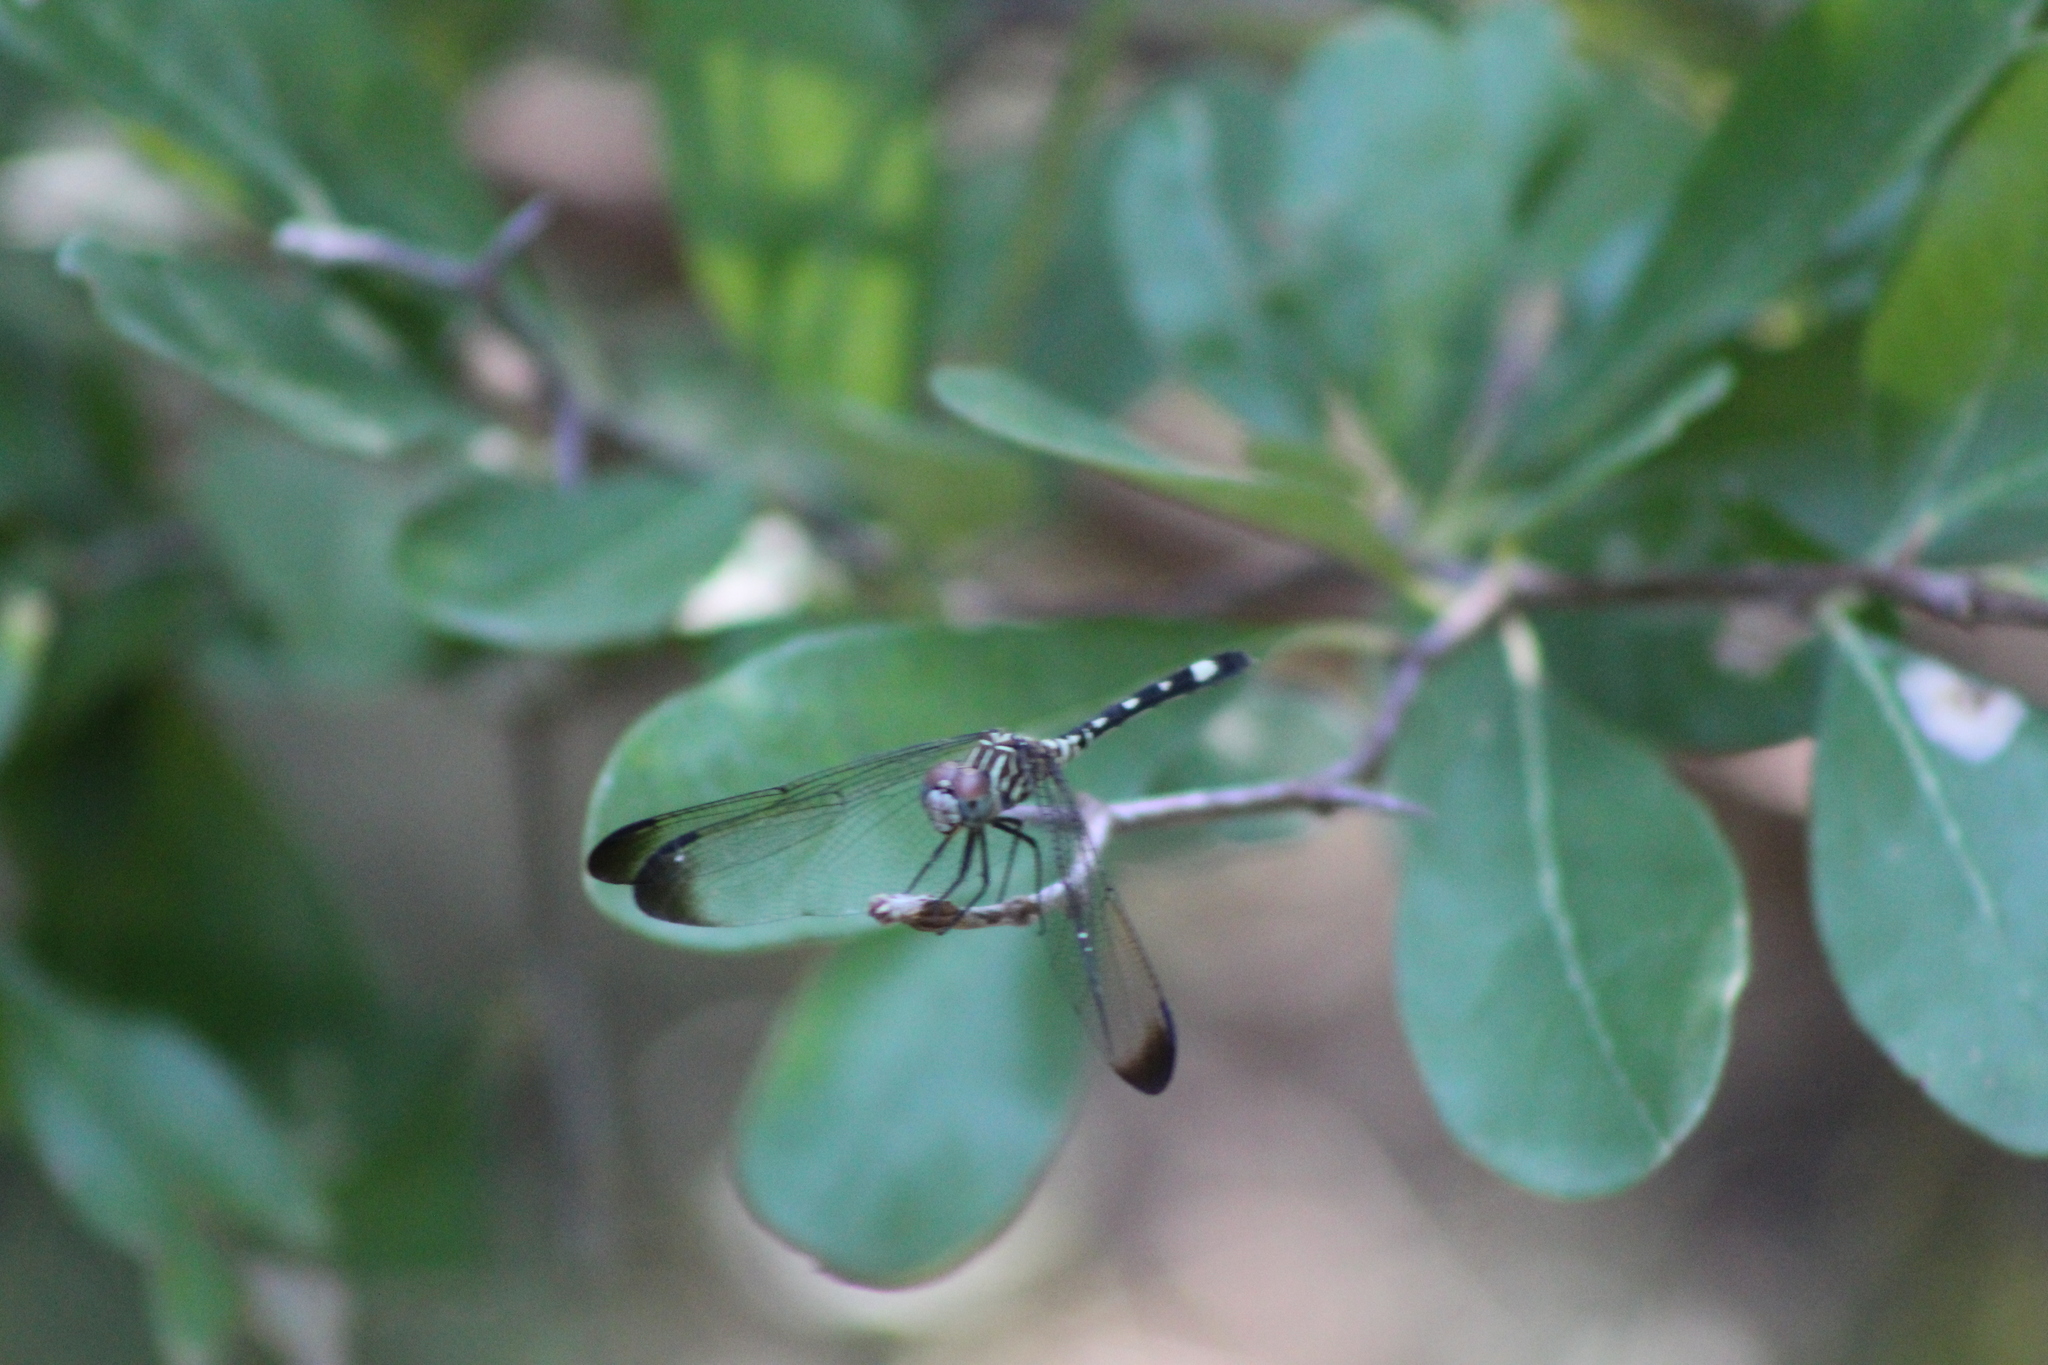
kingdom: Animalia
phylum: Arthropoda
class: Insecta
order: Odonata
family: Libellulidae
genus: Dythemis
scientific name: Dythemis velox
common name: Swift setwing
